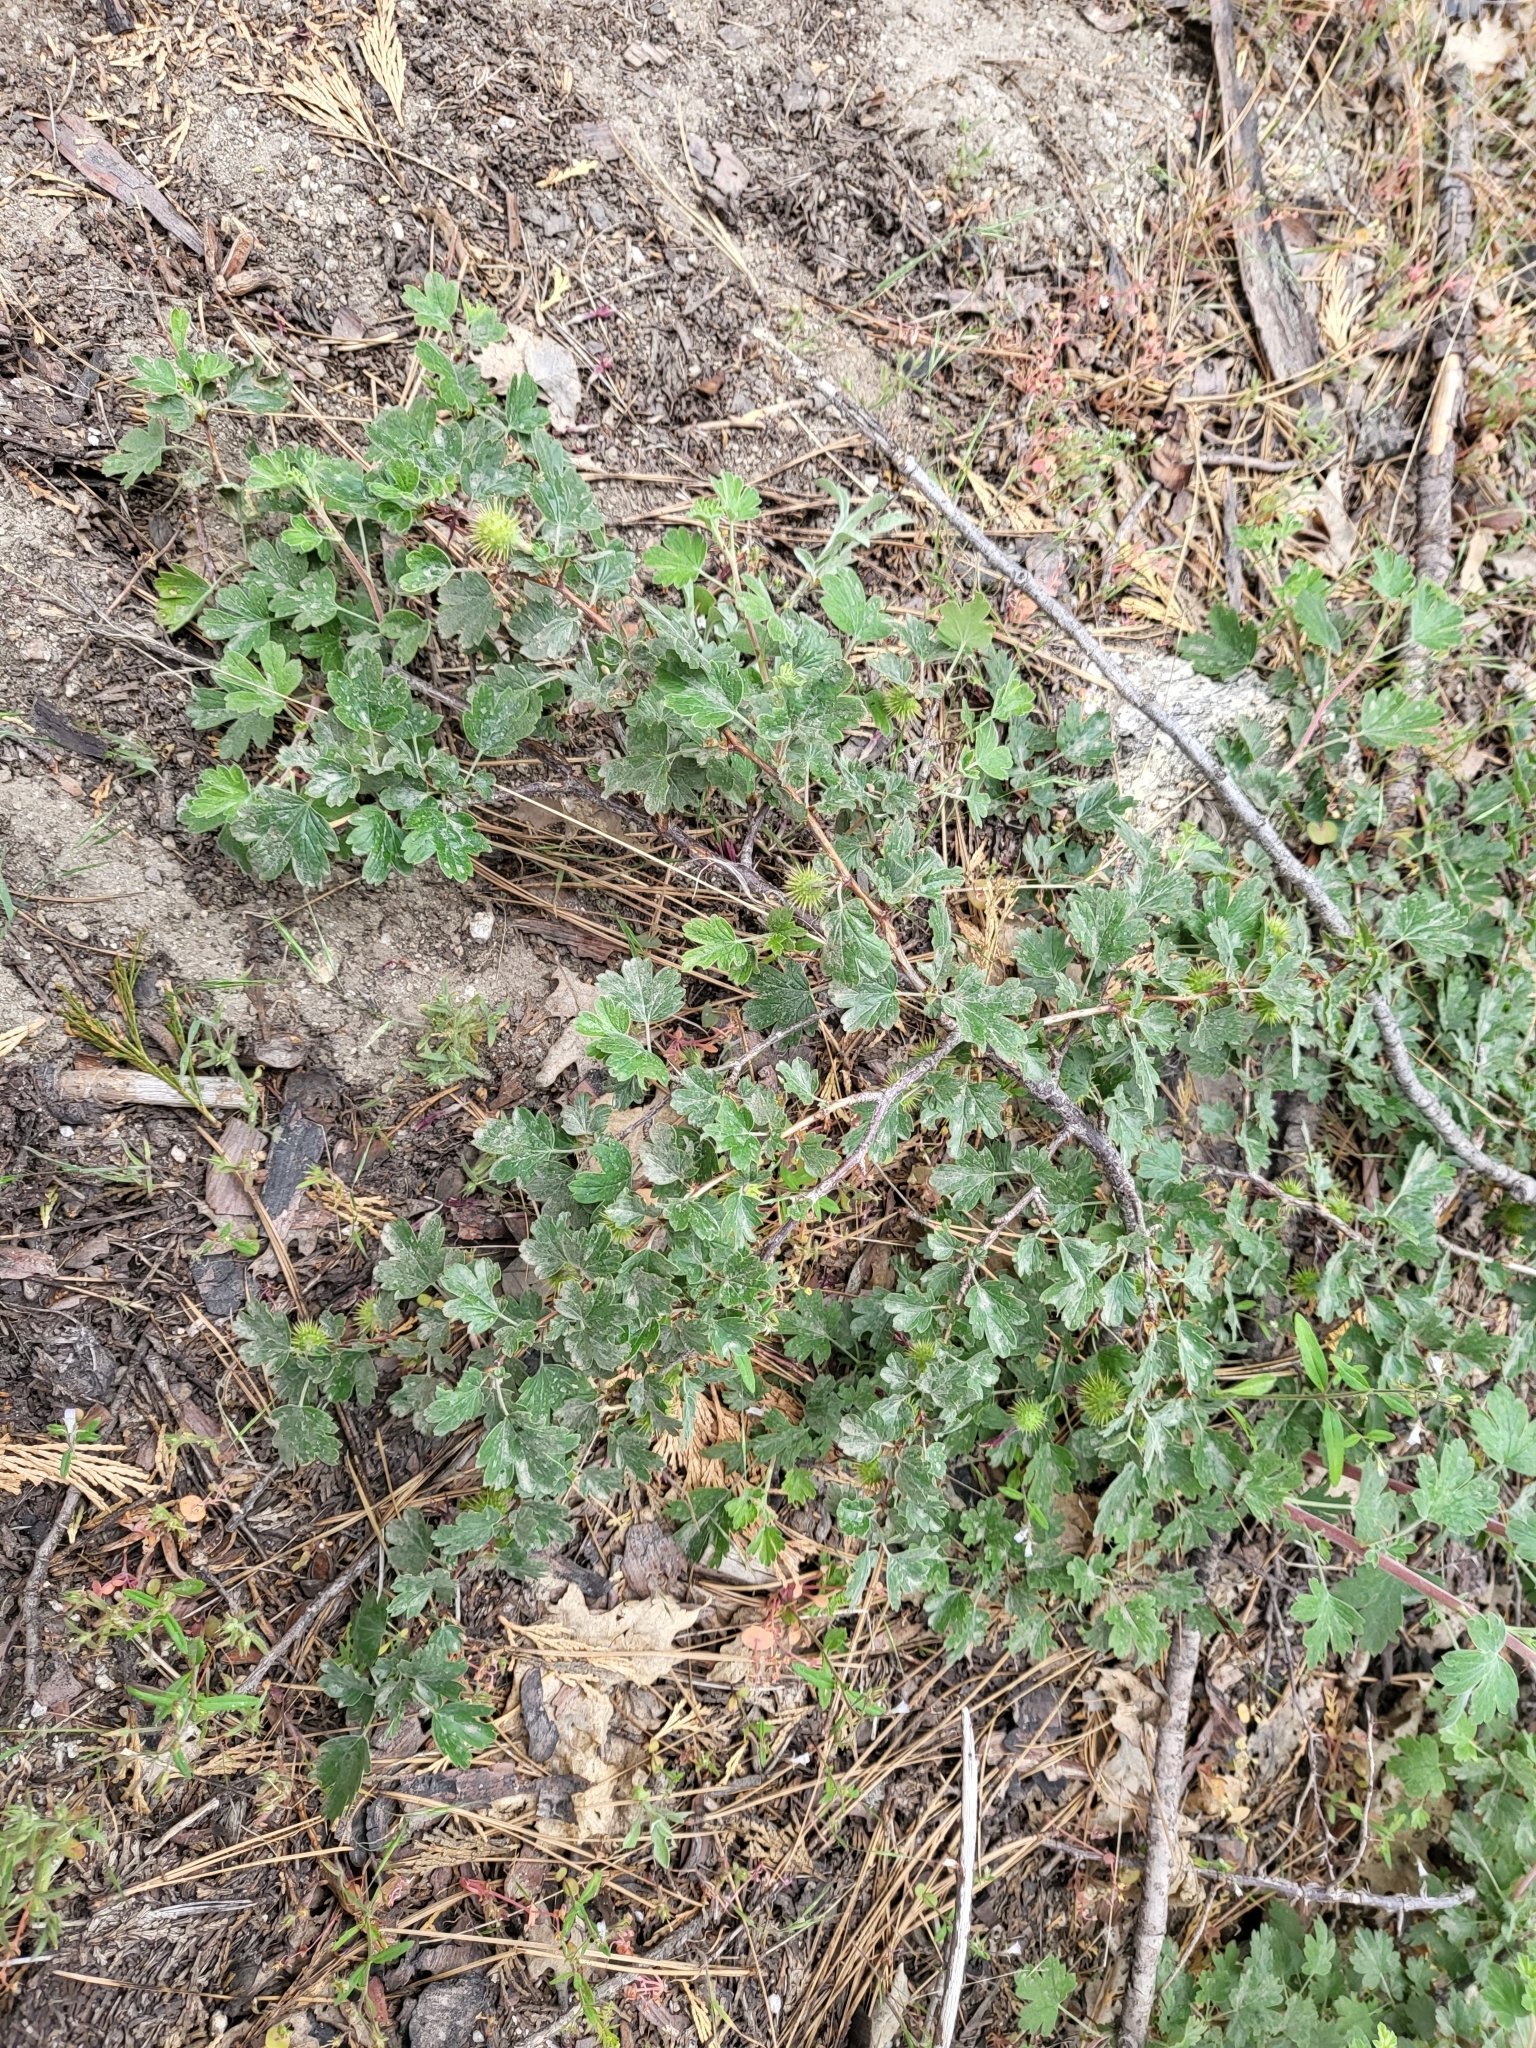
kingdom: Plantae
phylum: Tracheophyta
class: Magnoliopsida
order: Saxifragales
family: Grossulariaceae
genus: Ribes
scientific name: Ribes roezlii
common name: Sierra gooseberry
